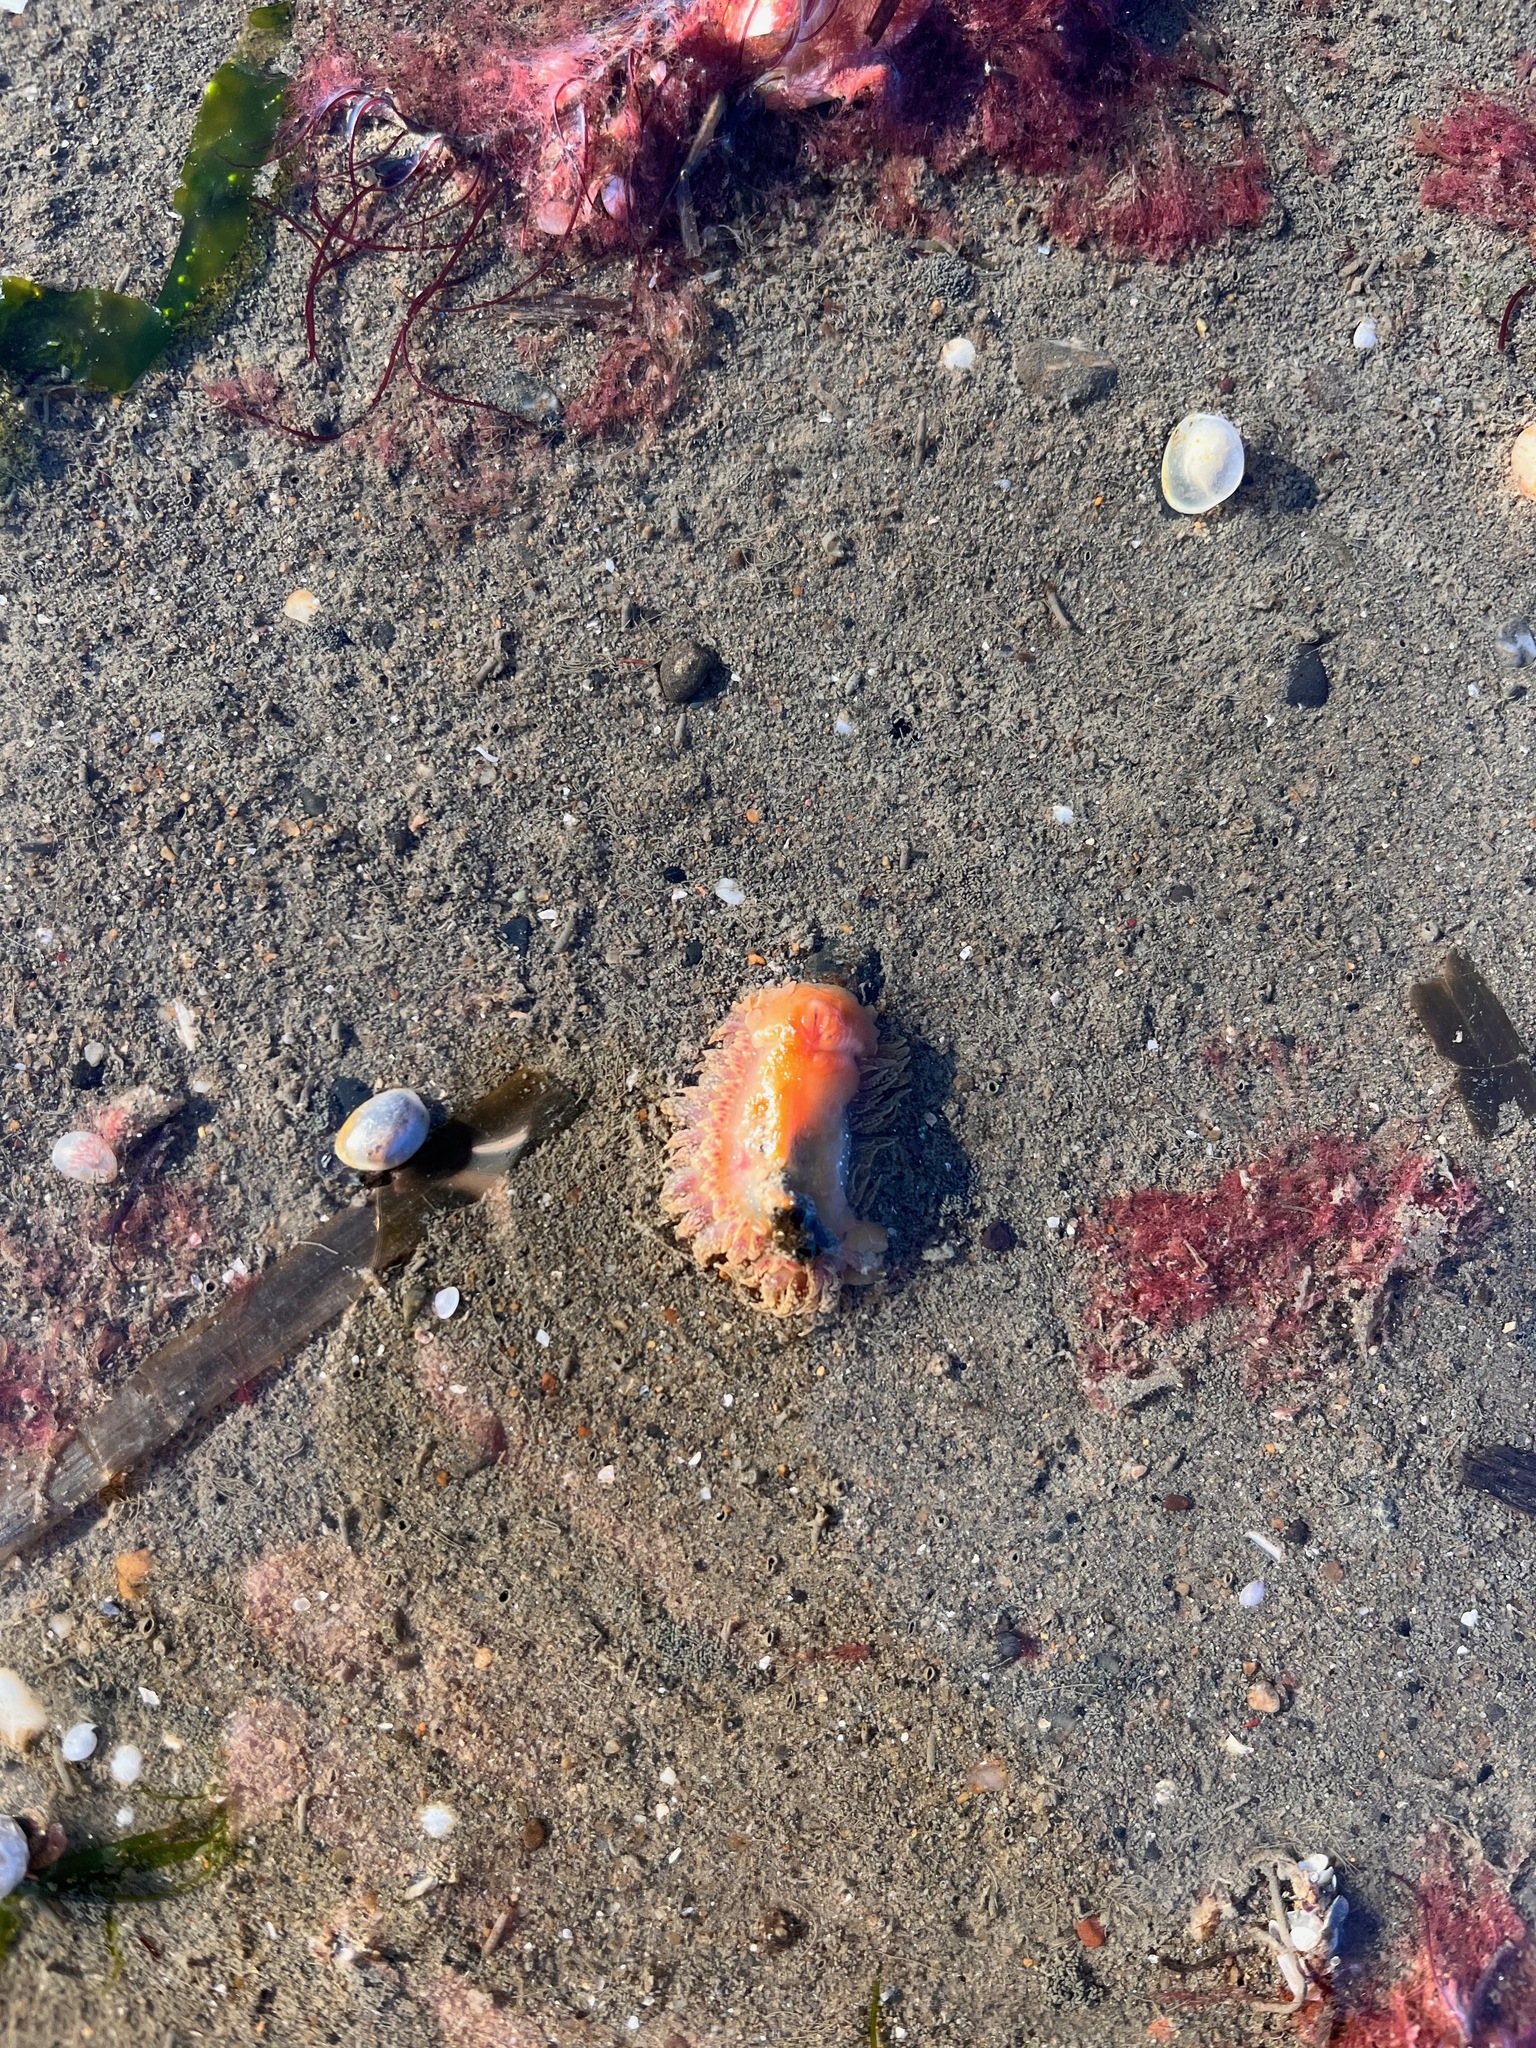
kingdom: Animalia
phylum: Mollusca
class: Gastropoda
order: Nudibranchia
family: Dironidae
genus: Dirona
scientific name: Dirona picta
